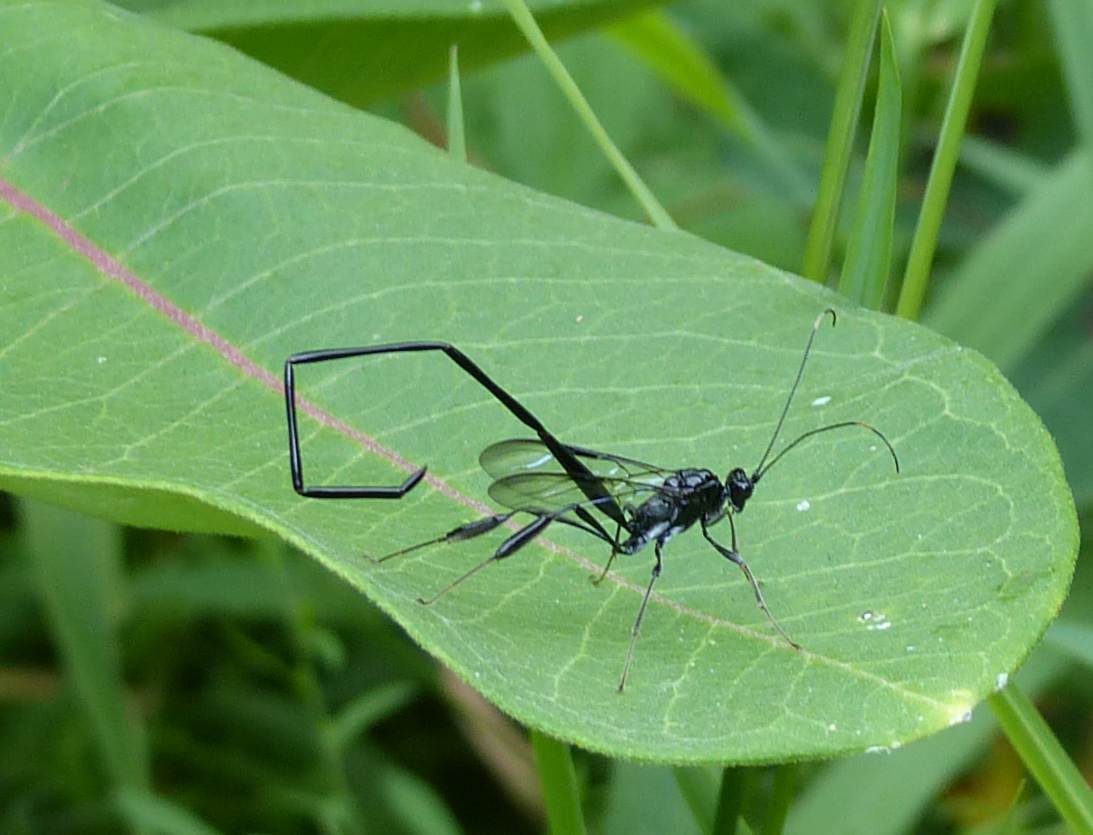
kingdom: Animalia
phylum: Arthropoda
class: Insecta
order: Hymenoptera
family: Pelecinidae
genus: Pelecinus
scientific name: Pelecinus polyturator
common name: American pelecinid wasp
